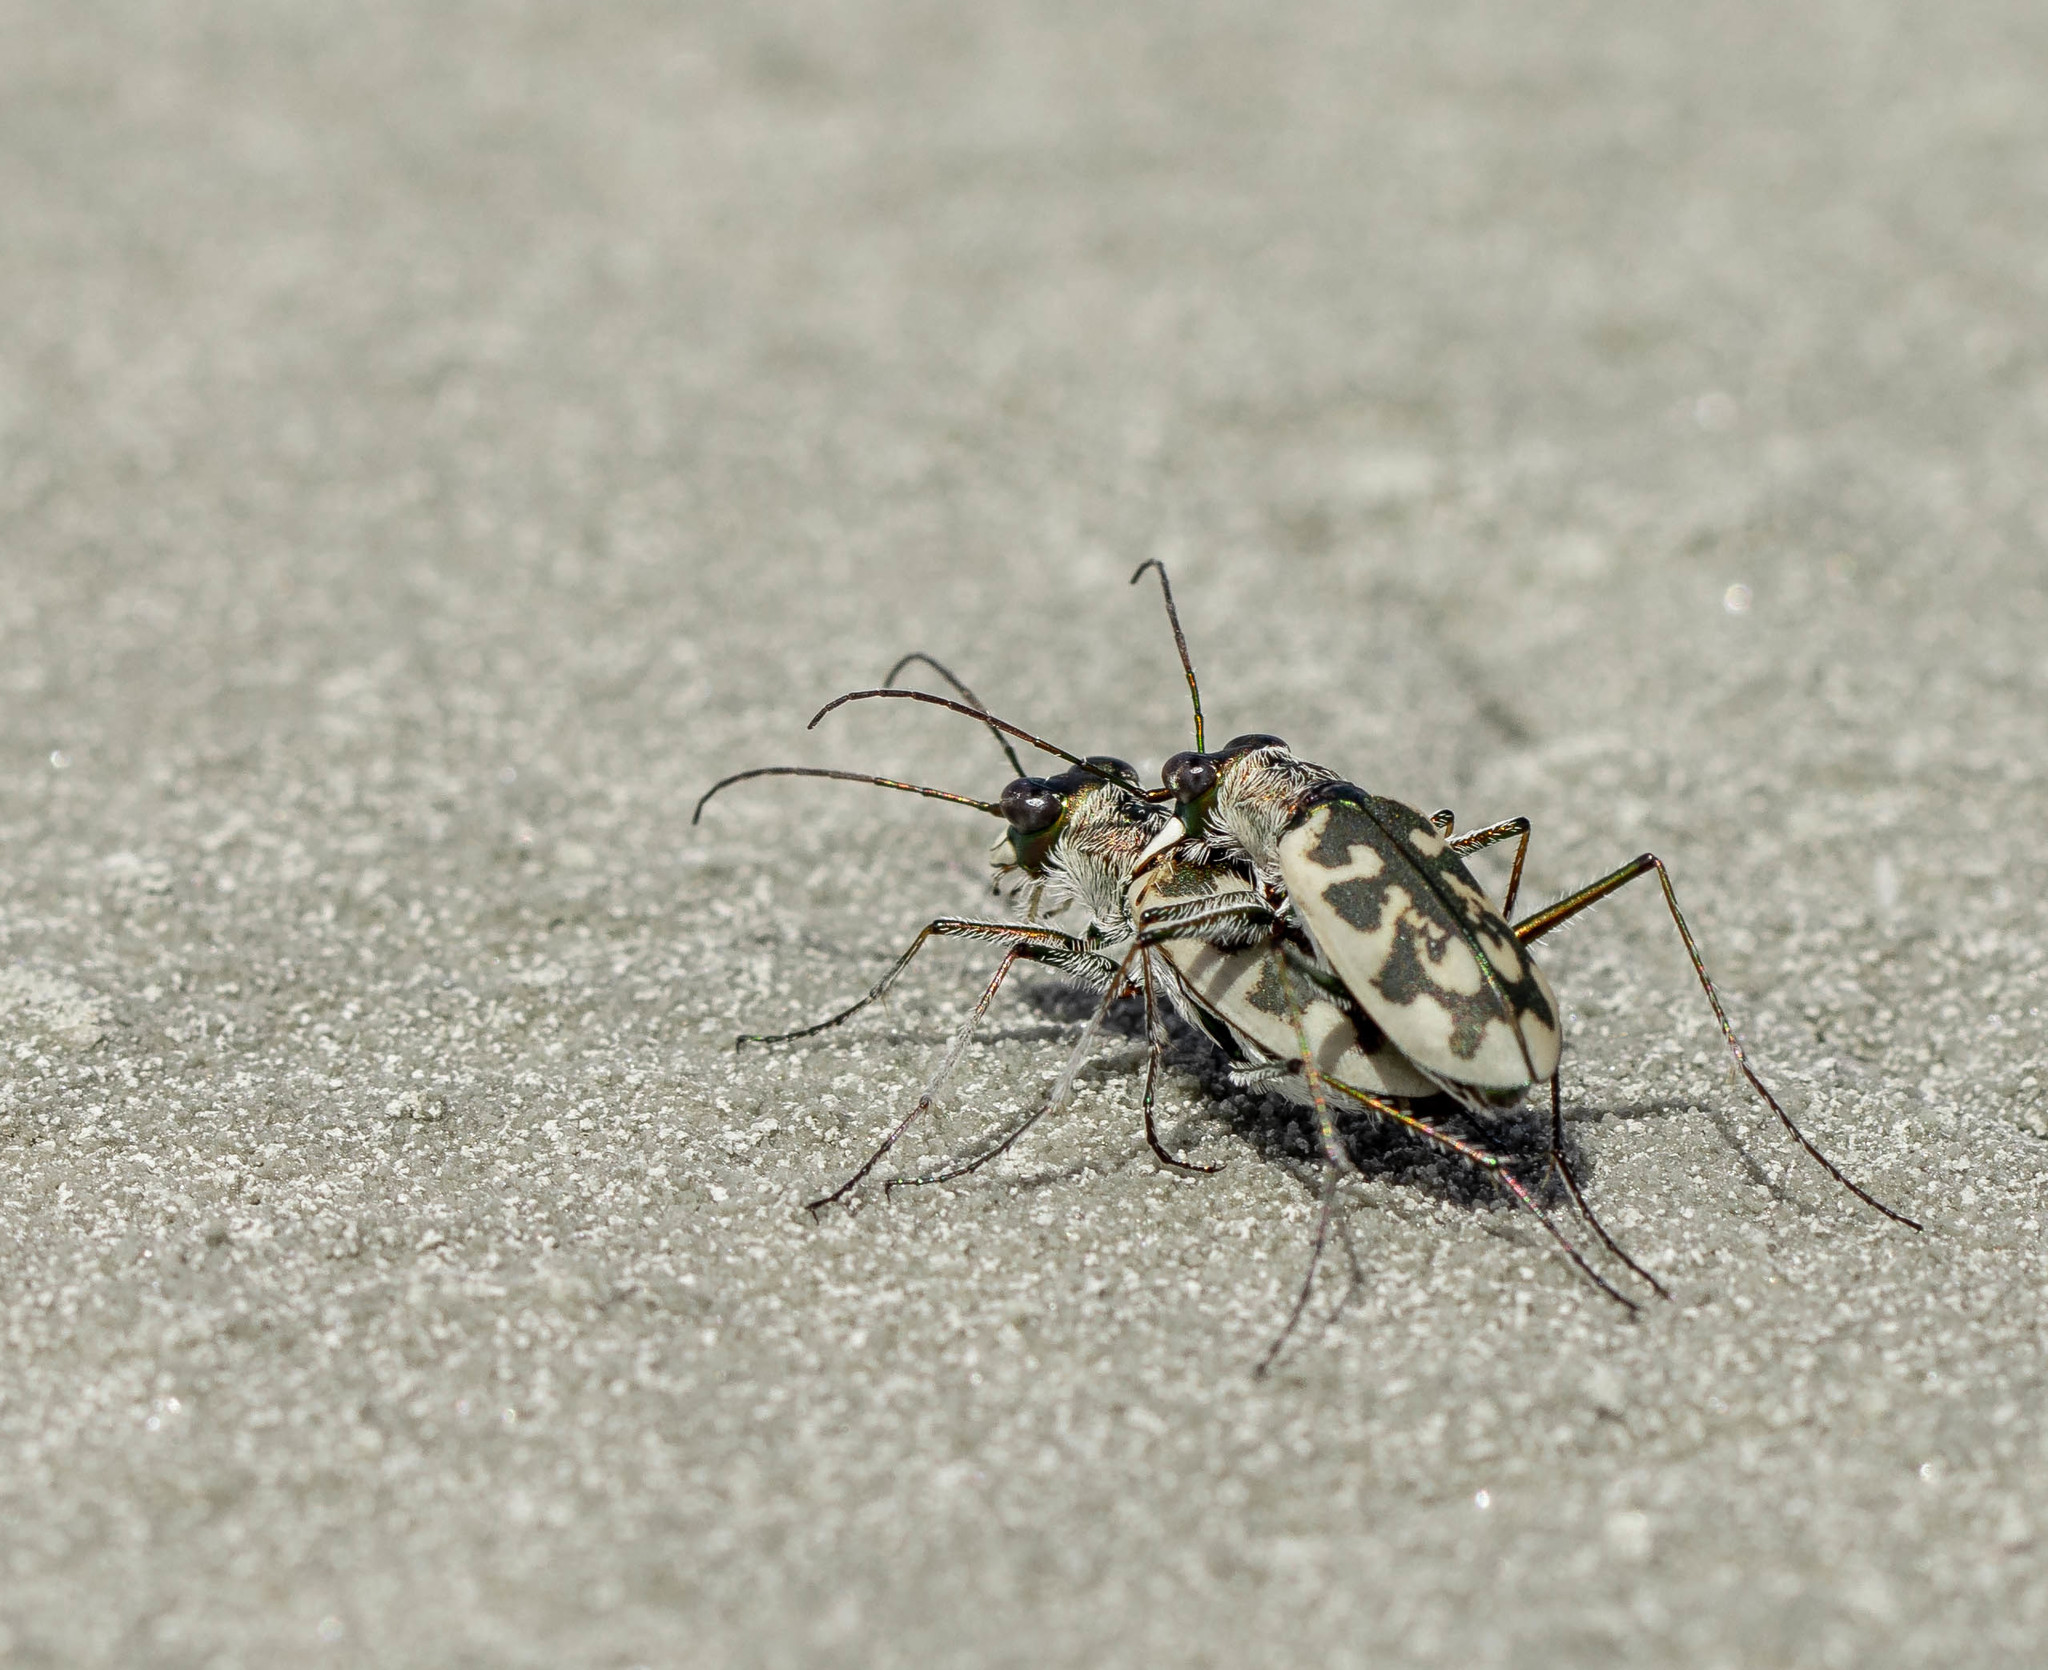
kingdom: Animalia
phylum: Arthropoda
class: Insecta
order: Coleoptera
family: Carabidae
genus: Cephalota
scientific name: Cephalota elegans
